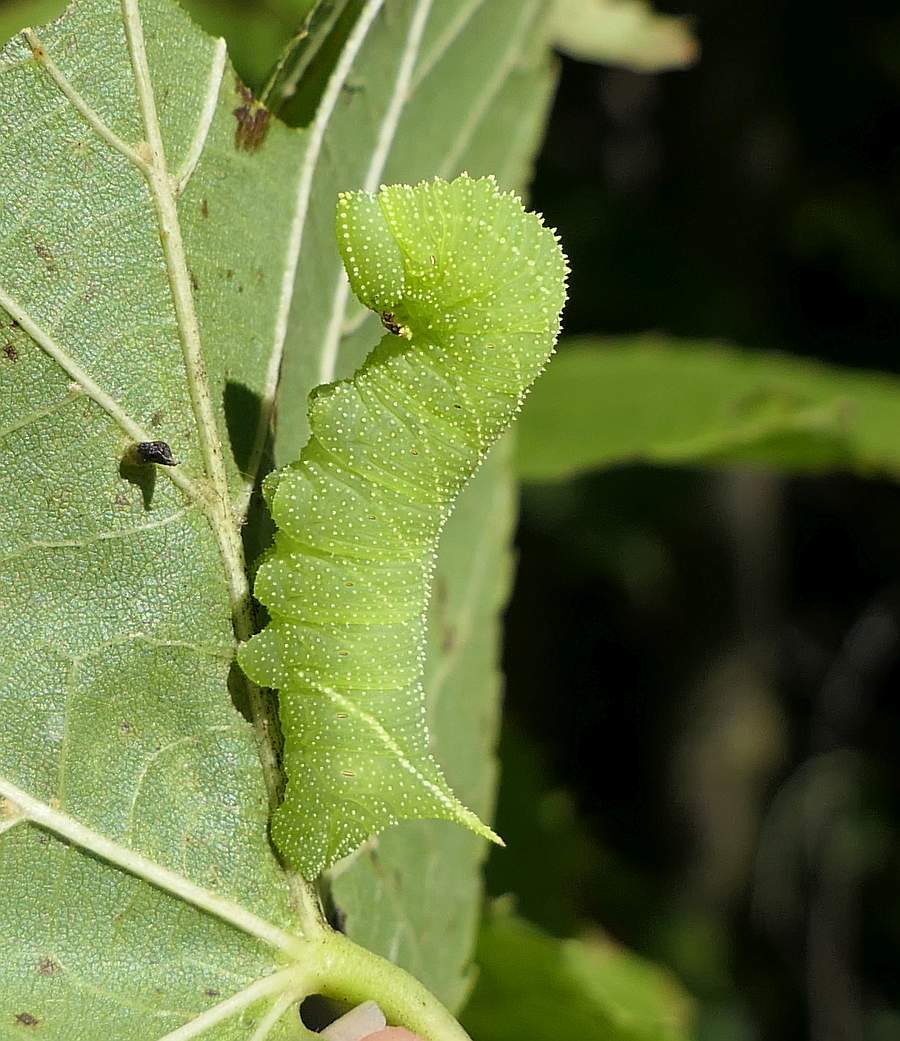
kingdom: Animalia
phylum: Arthropoda
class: Insecta
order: Lepidoptera
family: Sphingidae
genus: Paonias
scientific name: Paonias excaecata
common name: Blind-eyed sphinx
